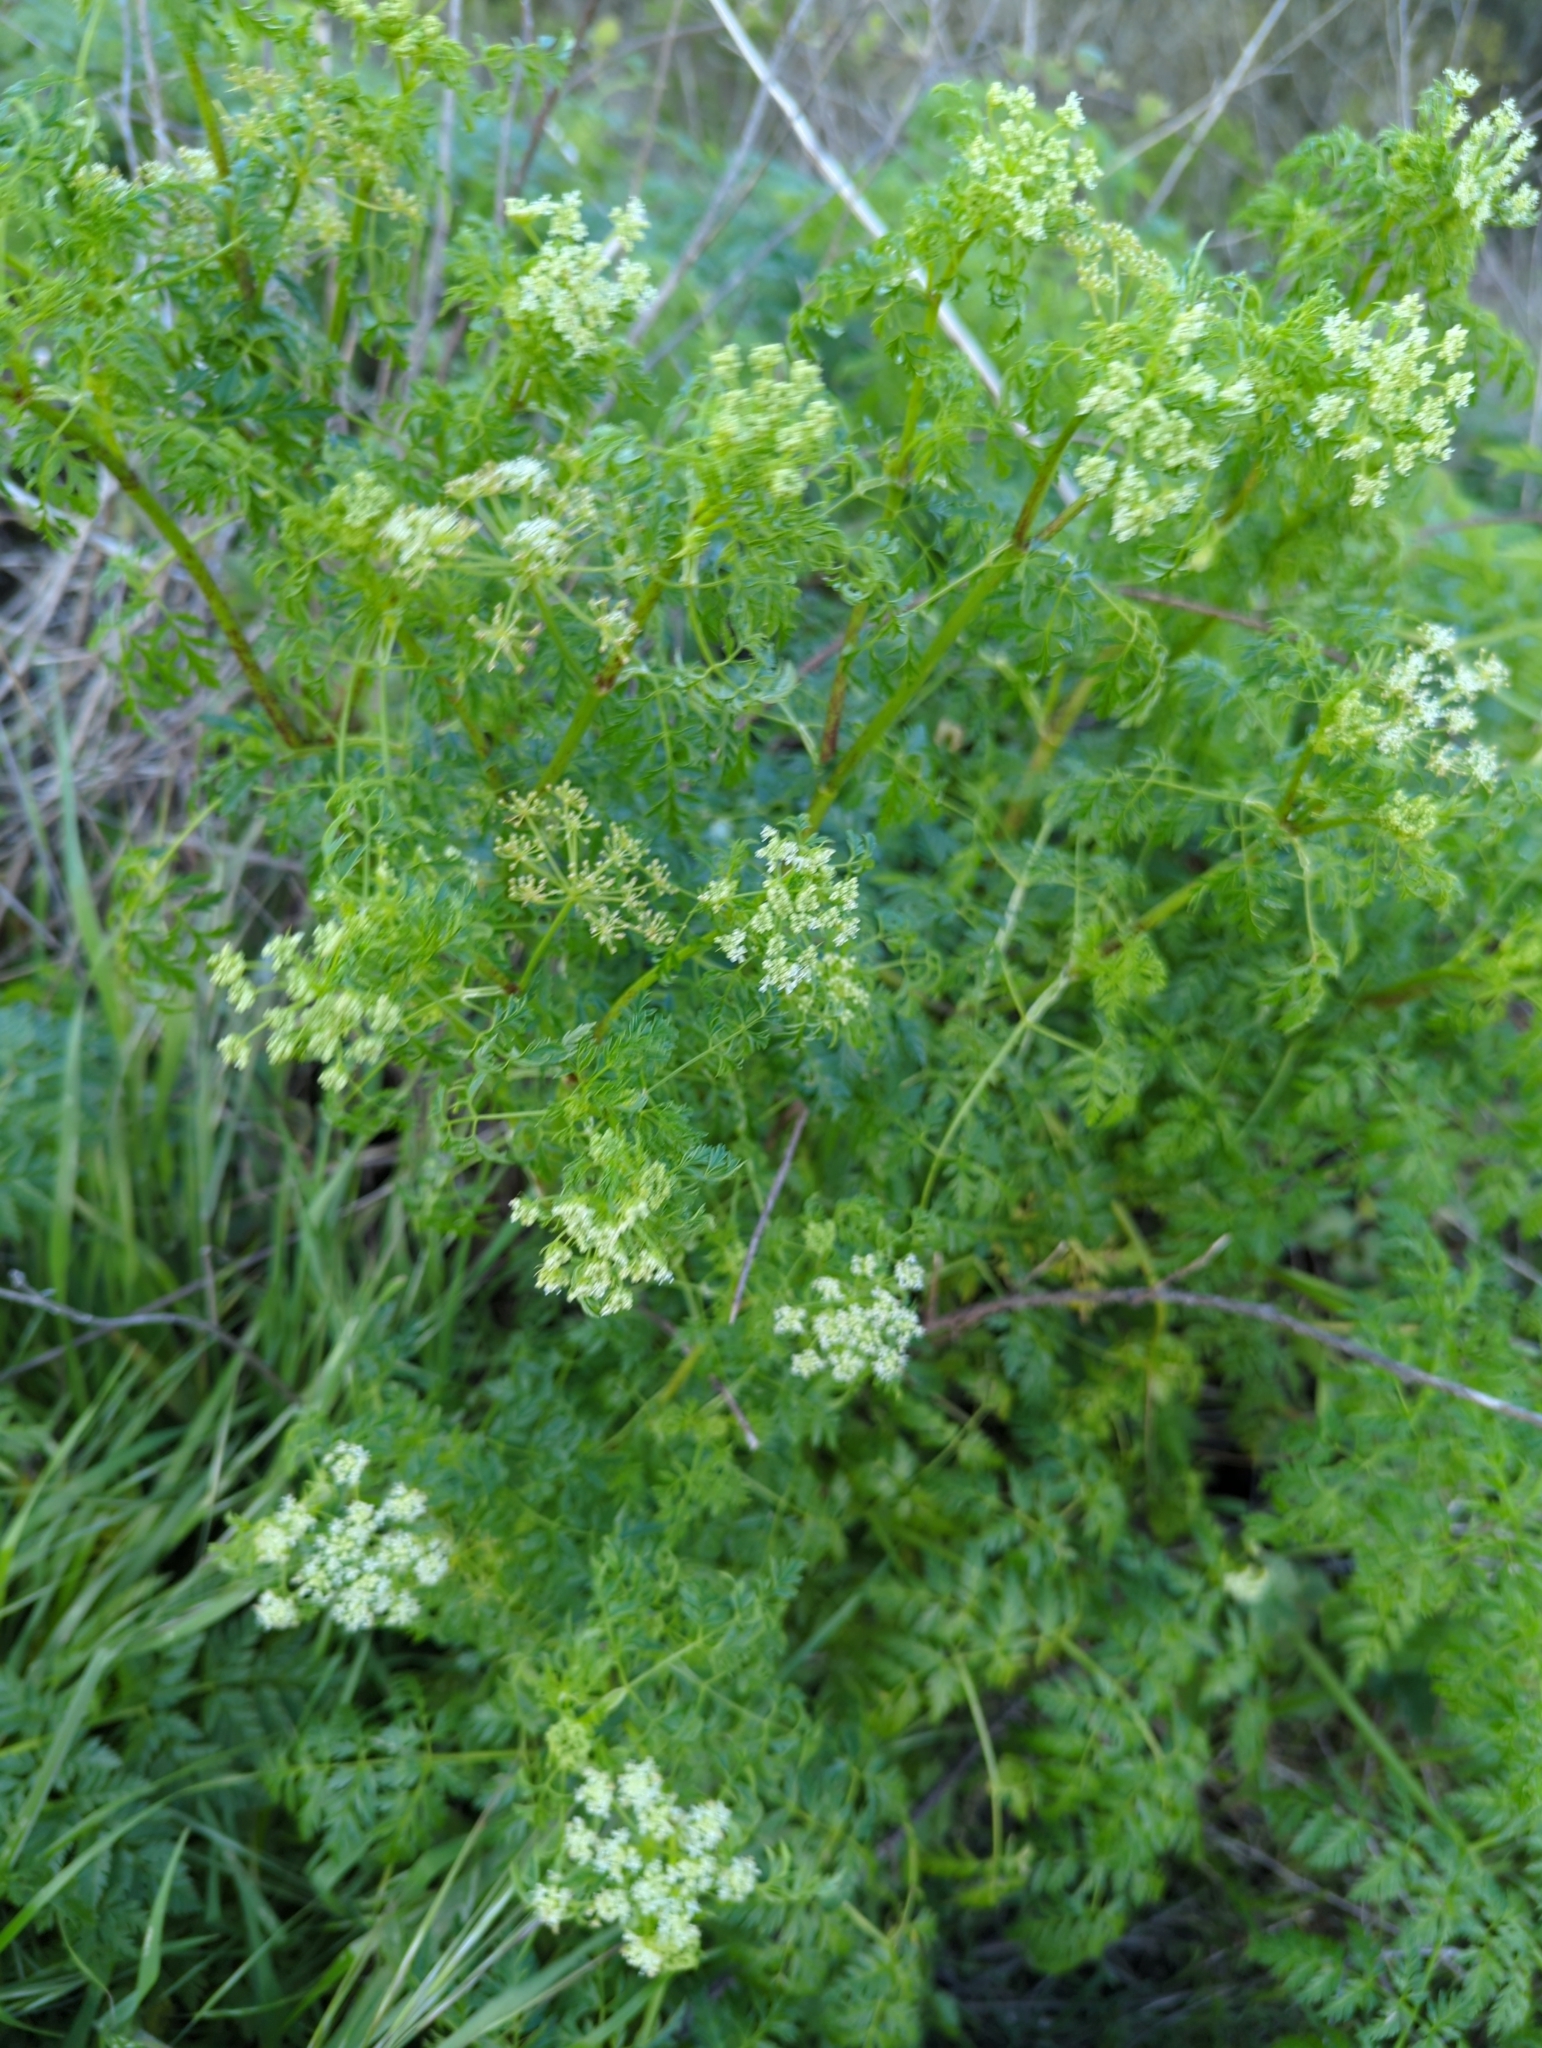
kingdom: Plantae
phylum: Tracheophyta
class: Magnoliopsida
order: Apiales
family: Apiaceae
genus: Conium
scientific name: Conium maculatum
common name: Hemlock
